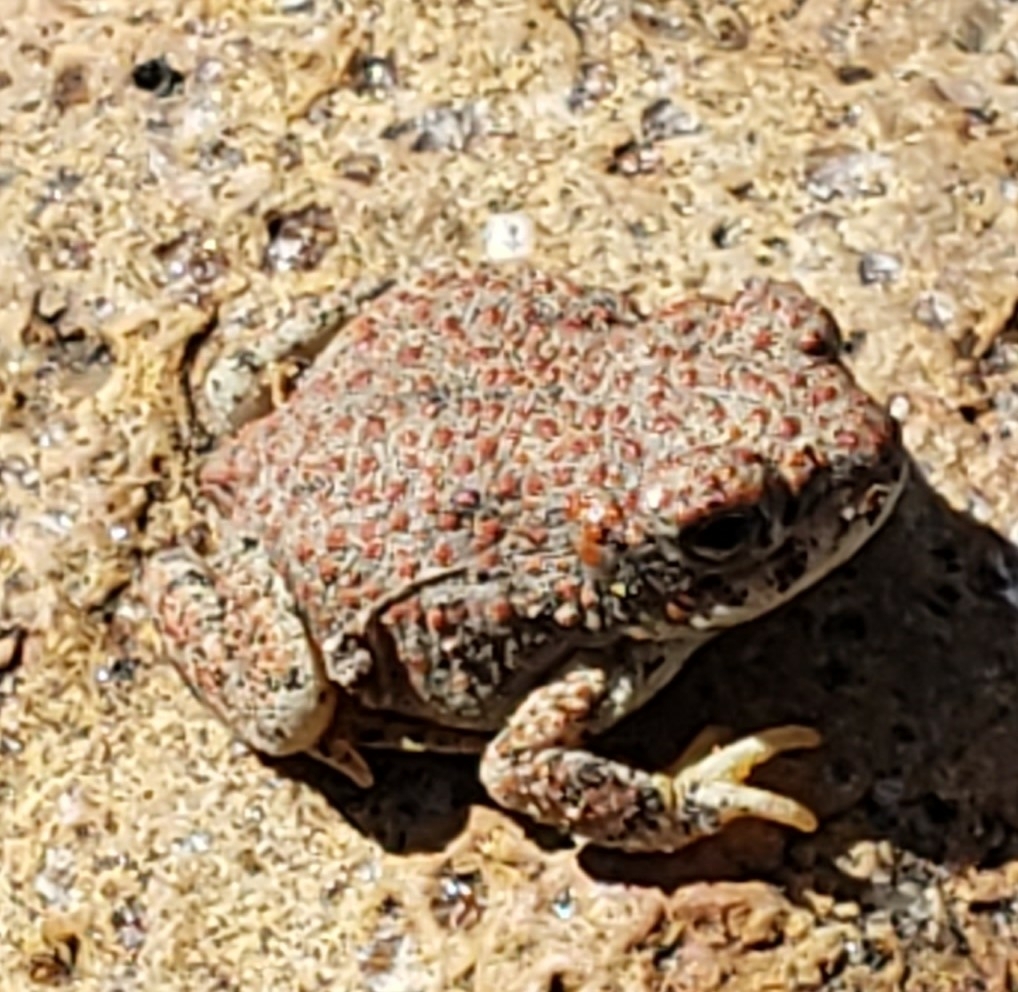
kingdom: Animalia
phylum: Chordata
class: Amphibia
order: Anura
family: Bufonidae
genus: Anaxyrus
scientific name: Anaxyrus punctatus
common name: Red-spotted toad
